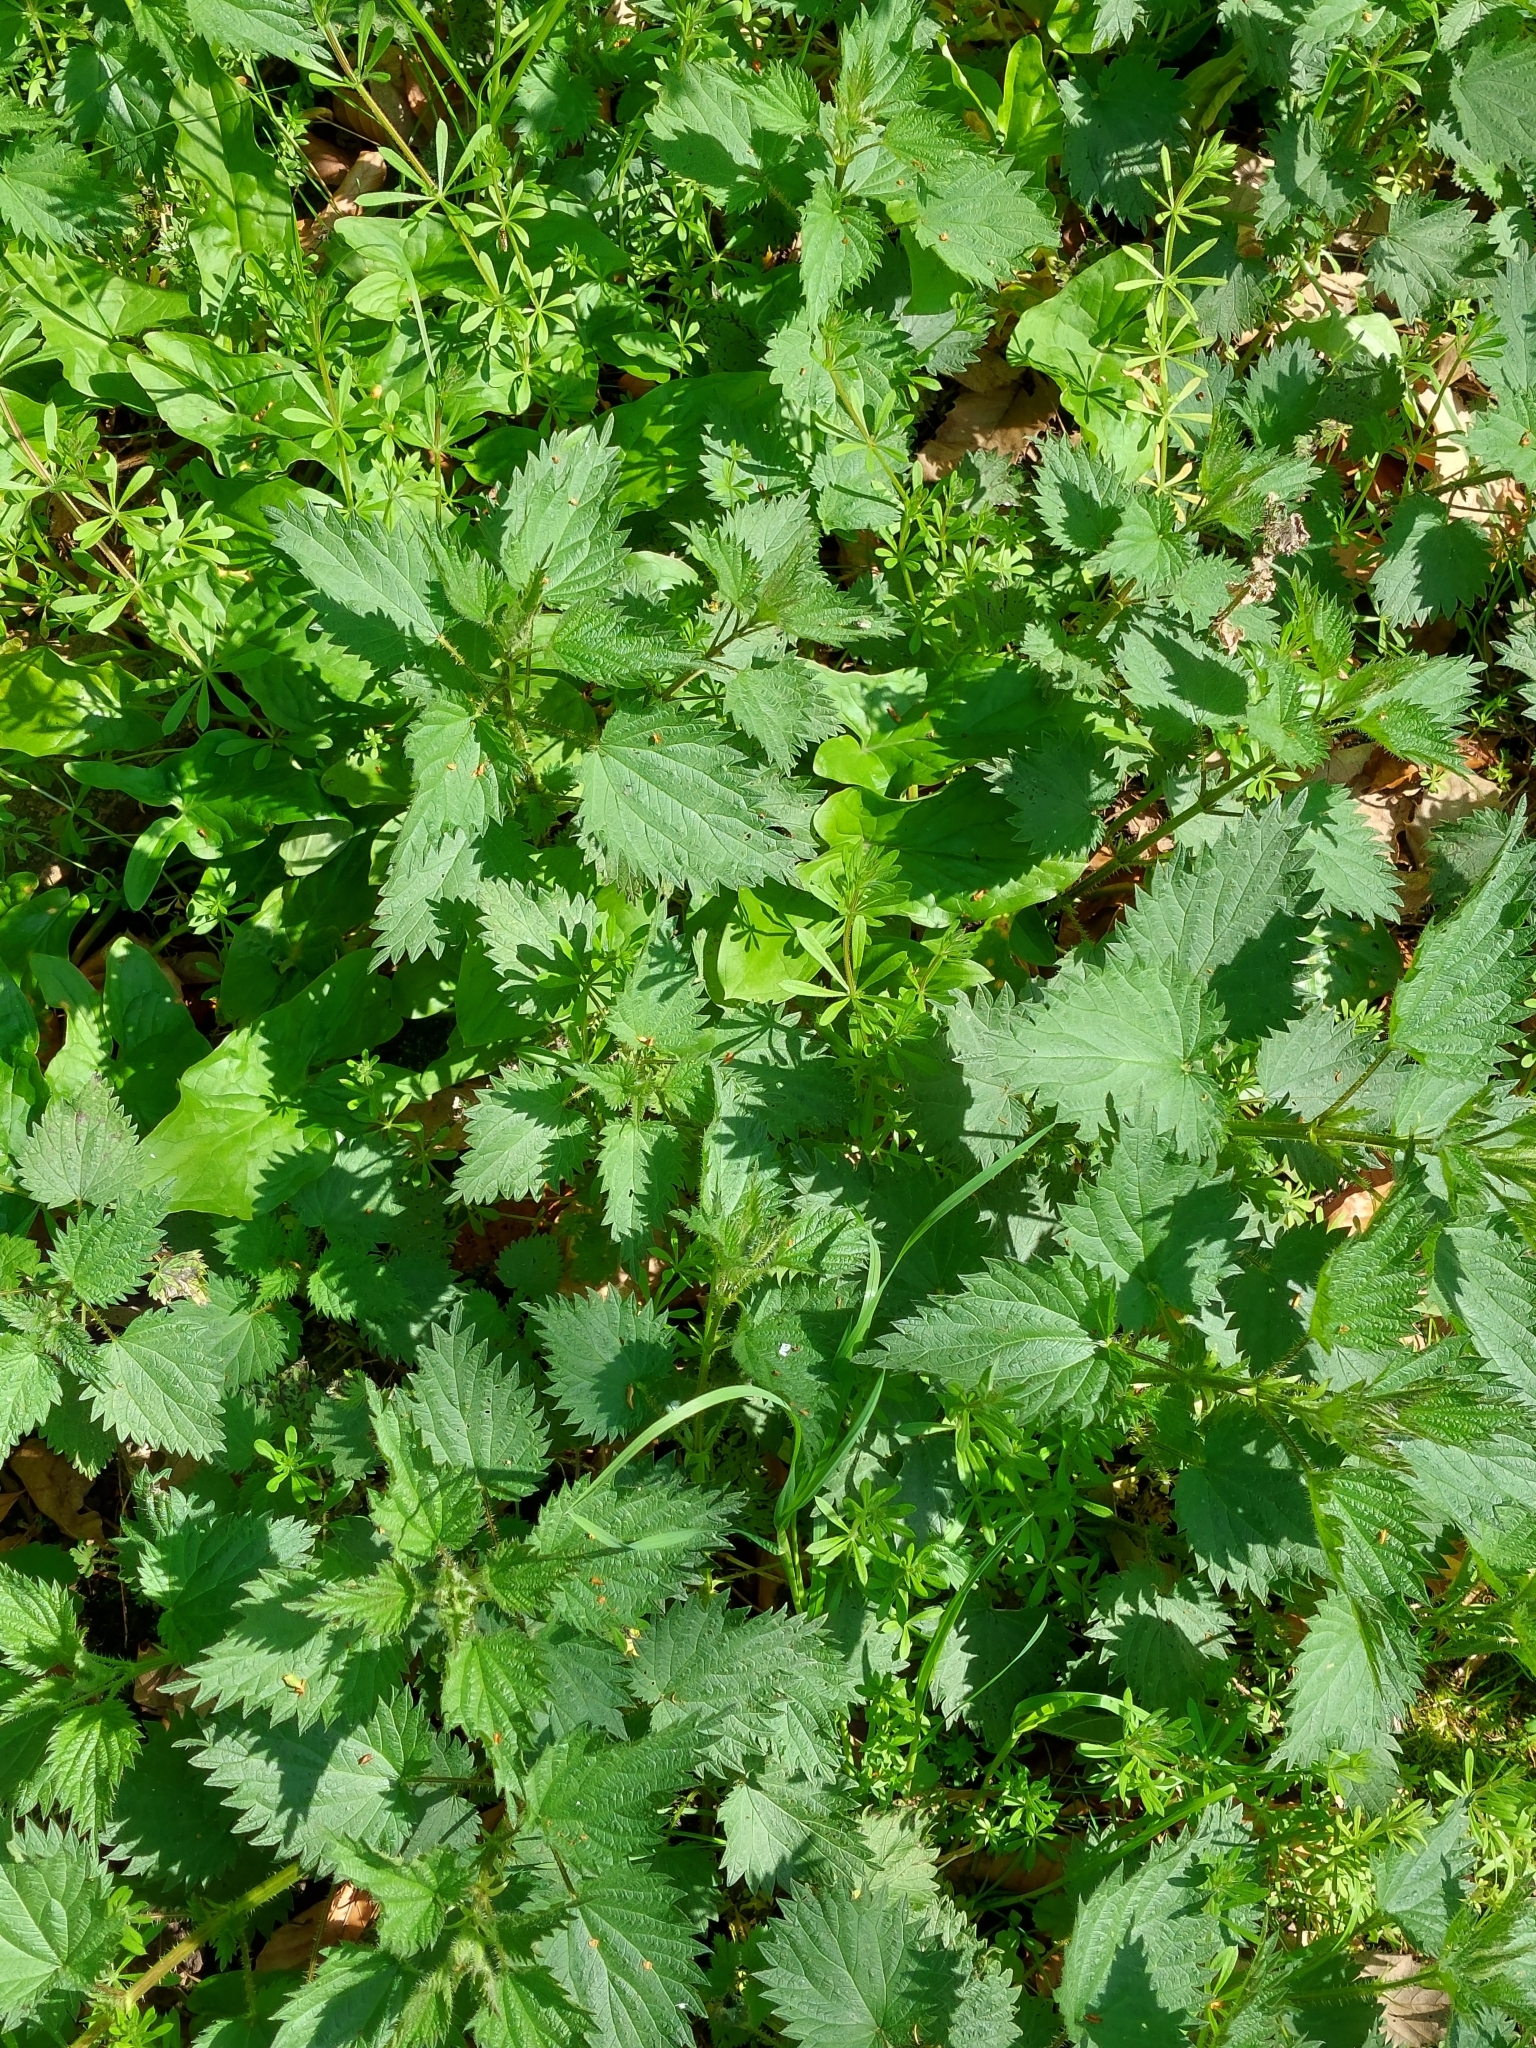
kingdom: Plantae
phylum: Tracheophyta
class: Magnoliopsida
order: Rosales
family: Urticaceae
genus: Urtica
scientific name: Urtica dioica
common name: Common nettle
